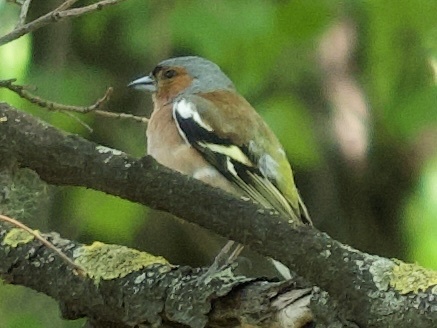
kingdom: Animalia
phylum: Chordata
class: Aves
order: Passeriformes
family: Fringillidae
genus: Fringilla
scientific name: Fringilla coelebs
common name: Common chaffinch
